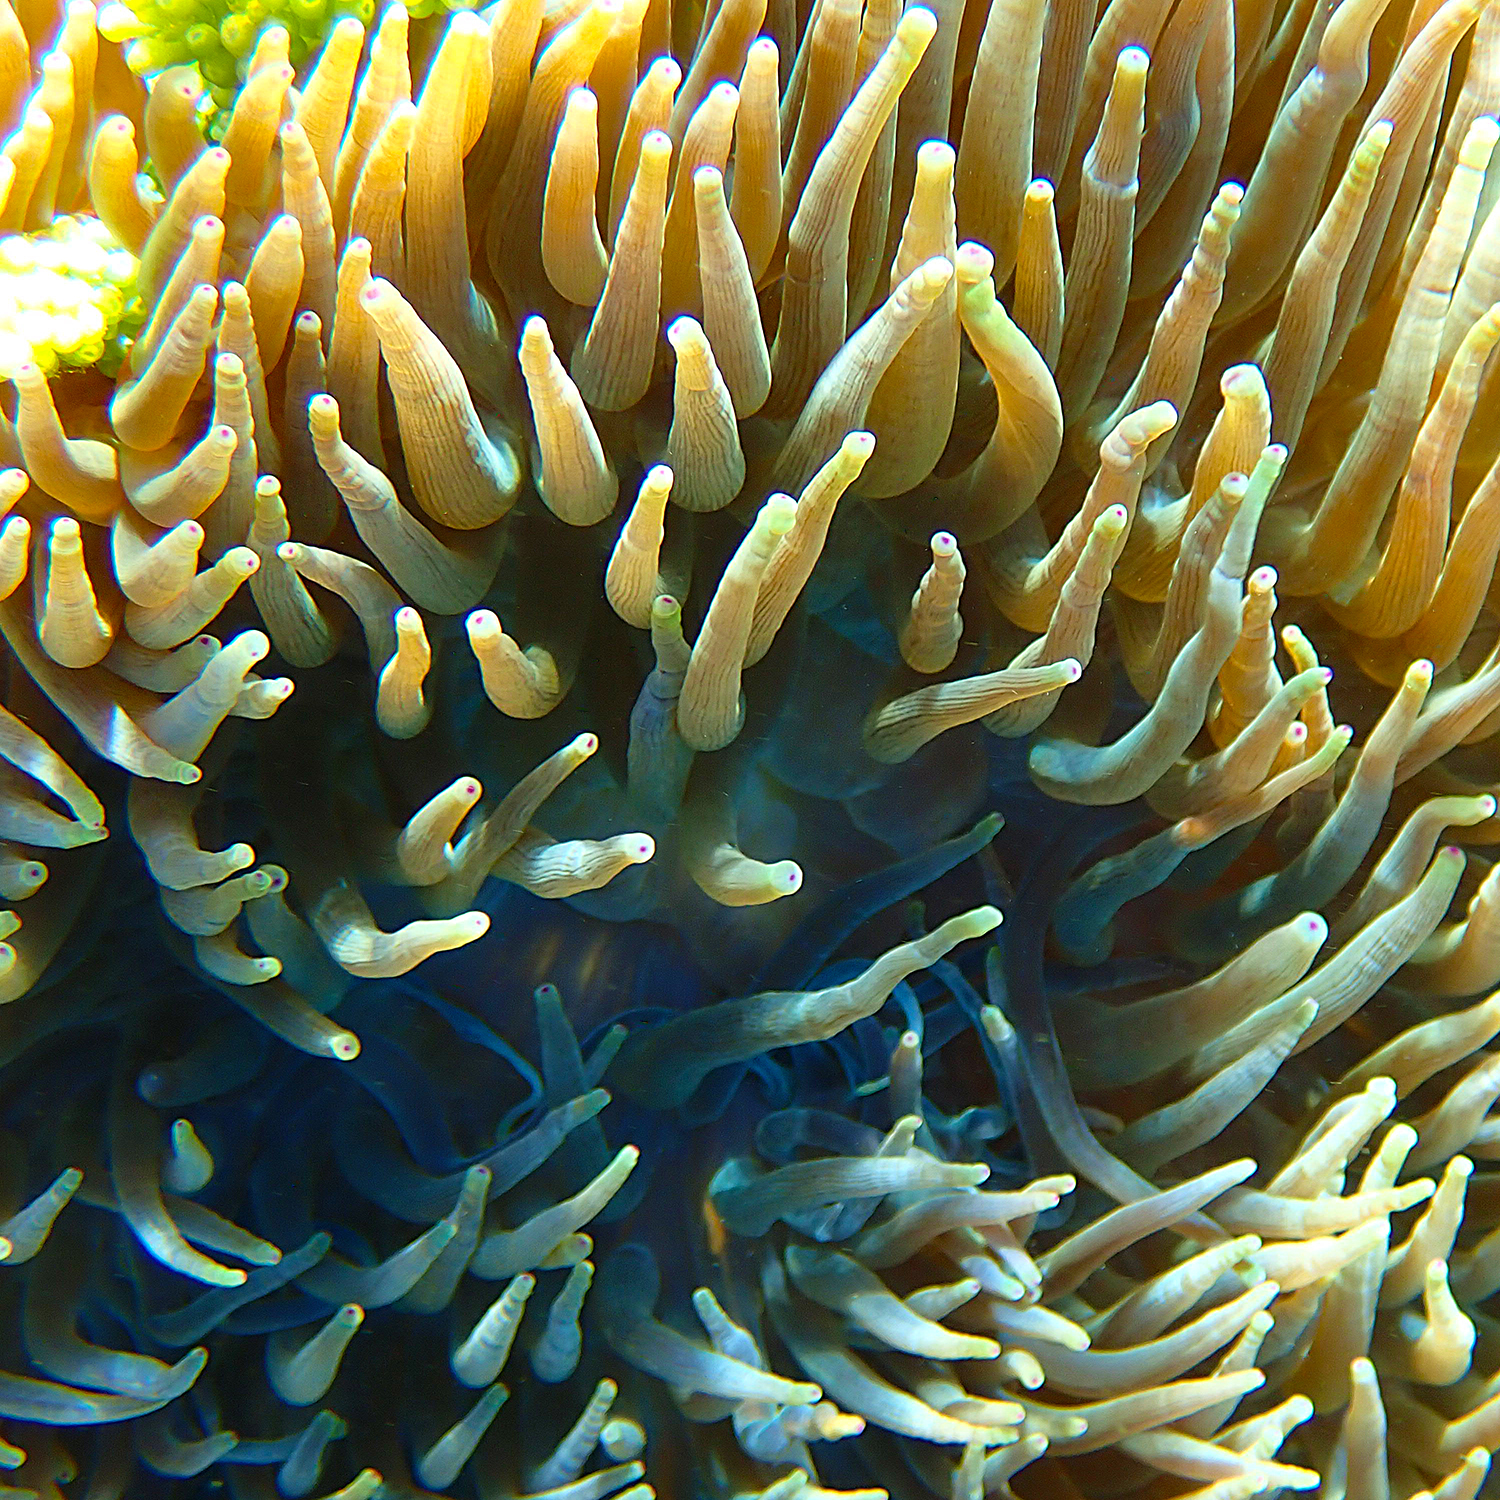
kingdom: Animalia
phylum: Cnidaria
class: Anthozoa
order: Actiniaria
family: Actiniidae
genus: Entacmaea
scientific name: Entacmaea quadricolor
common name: Bulb tentacle sea anemone
